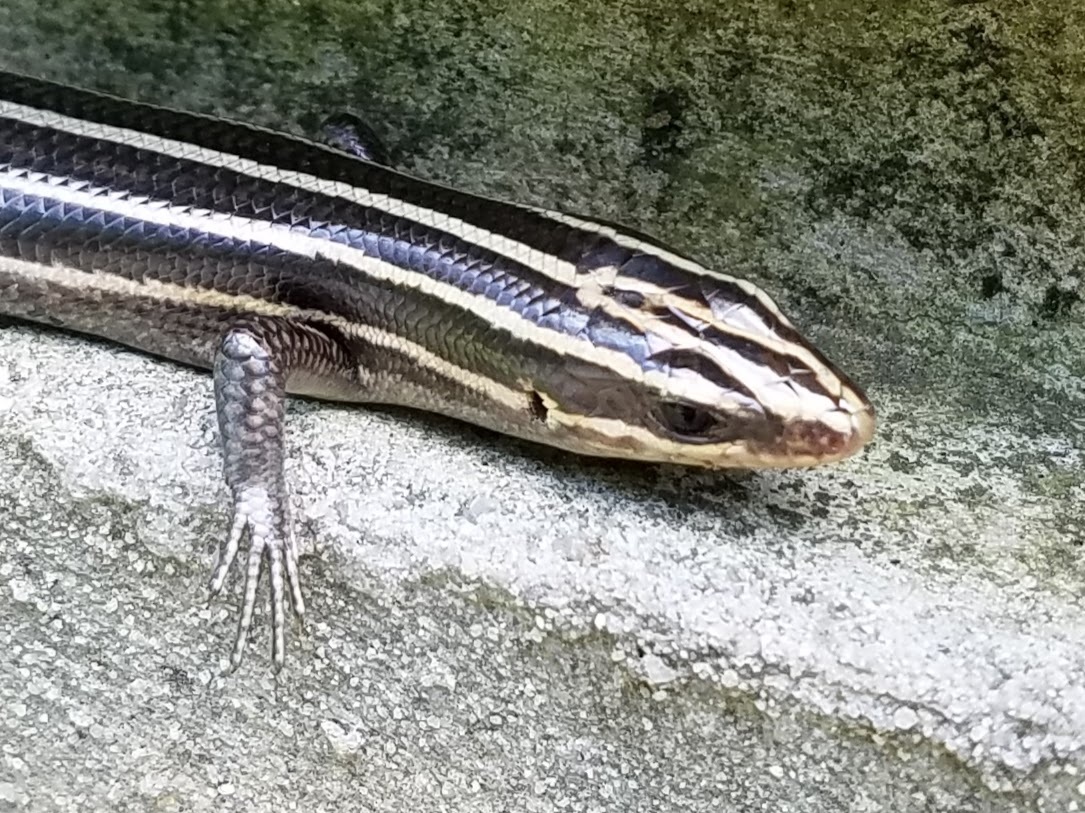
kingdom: Animalia
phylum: Chordata
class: Squamata
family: Scincidae
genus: Plestiodon
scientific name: Plestiodon fasciatus
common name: Five-lined skink
